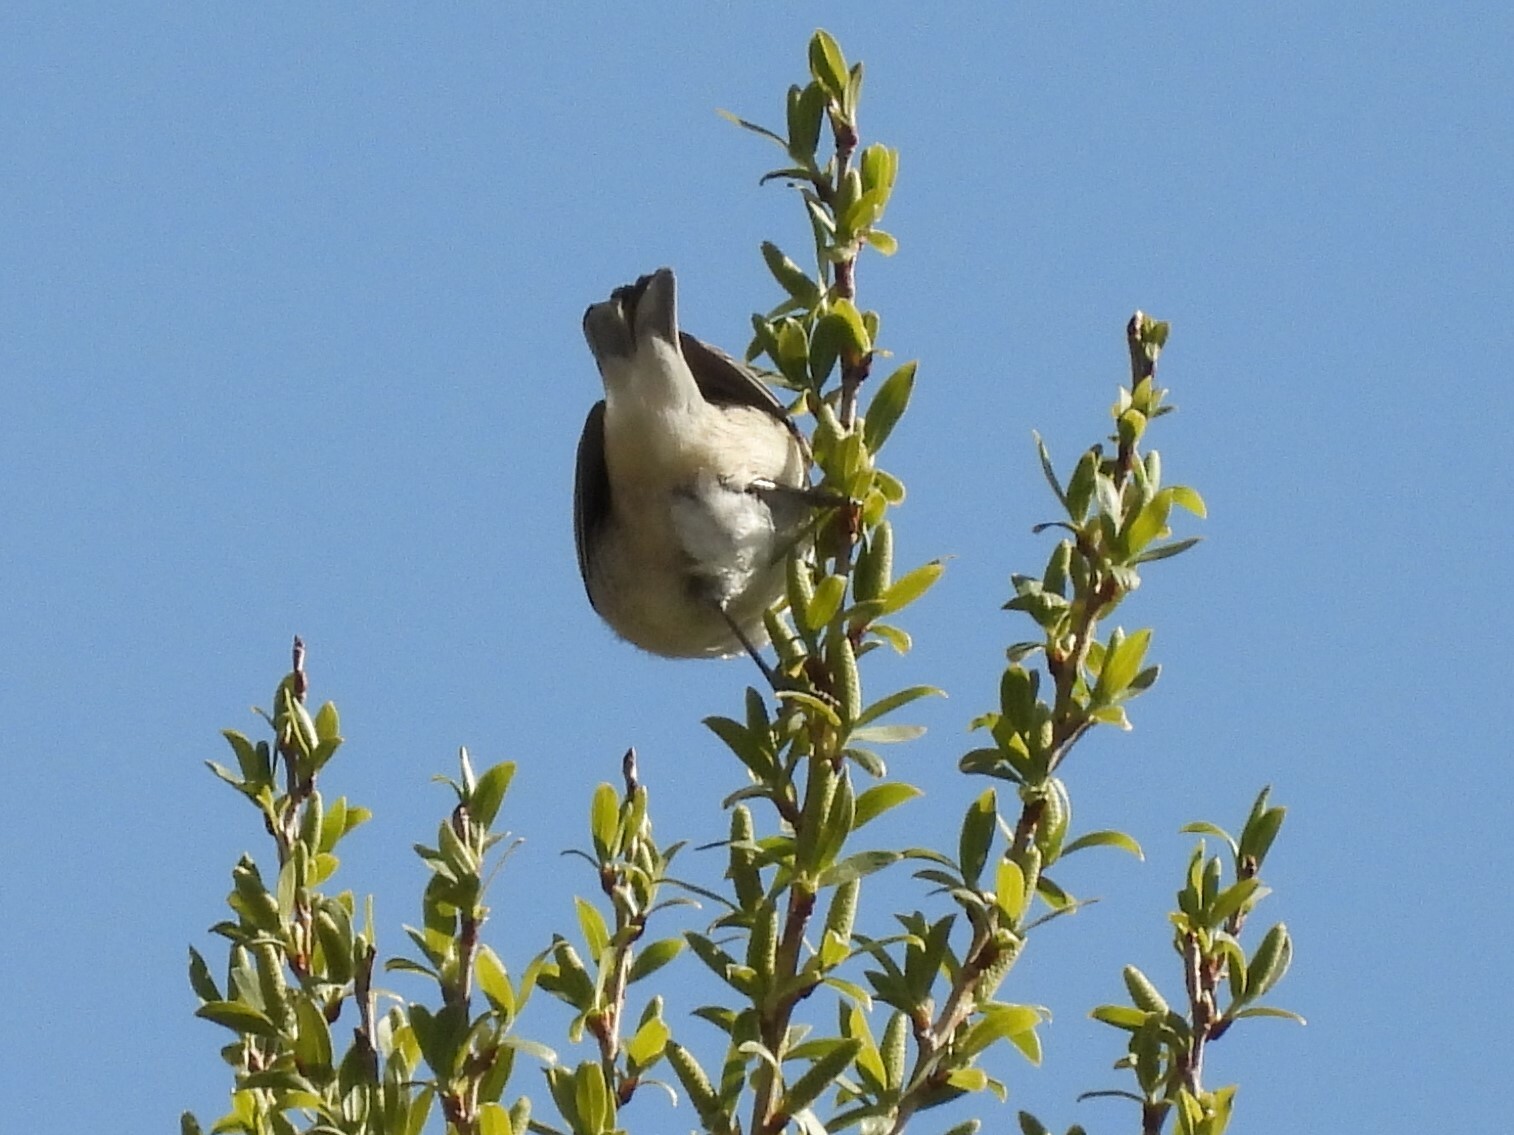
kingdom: Animalia
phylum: Chordata
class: Aves
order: Passeriformes
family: Parulidae
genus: Leiothlypis
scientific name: Leiothlypis luciae
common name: Lucy's warbler
